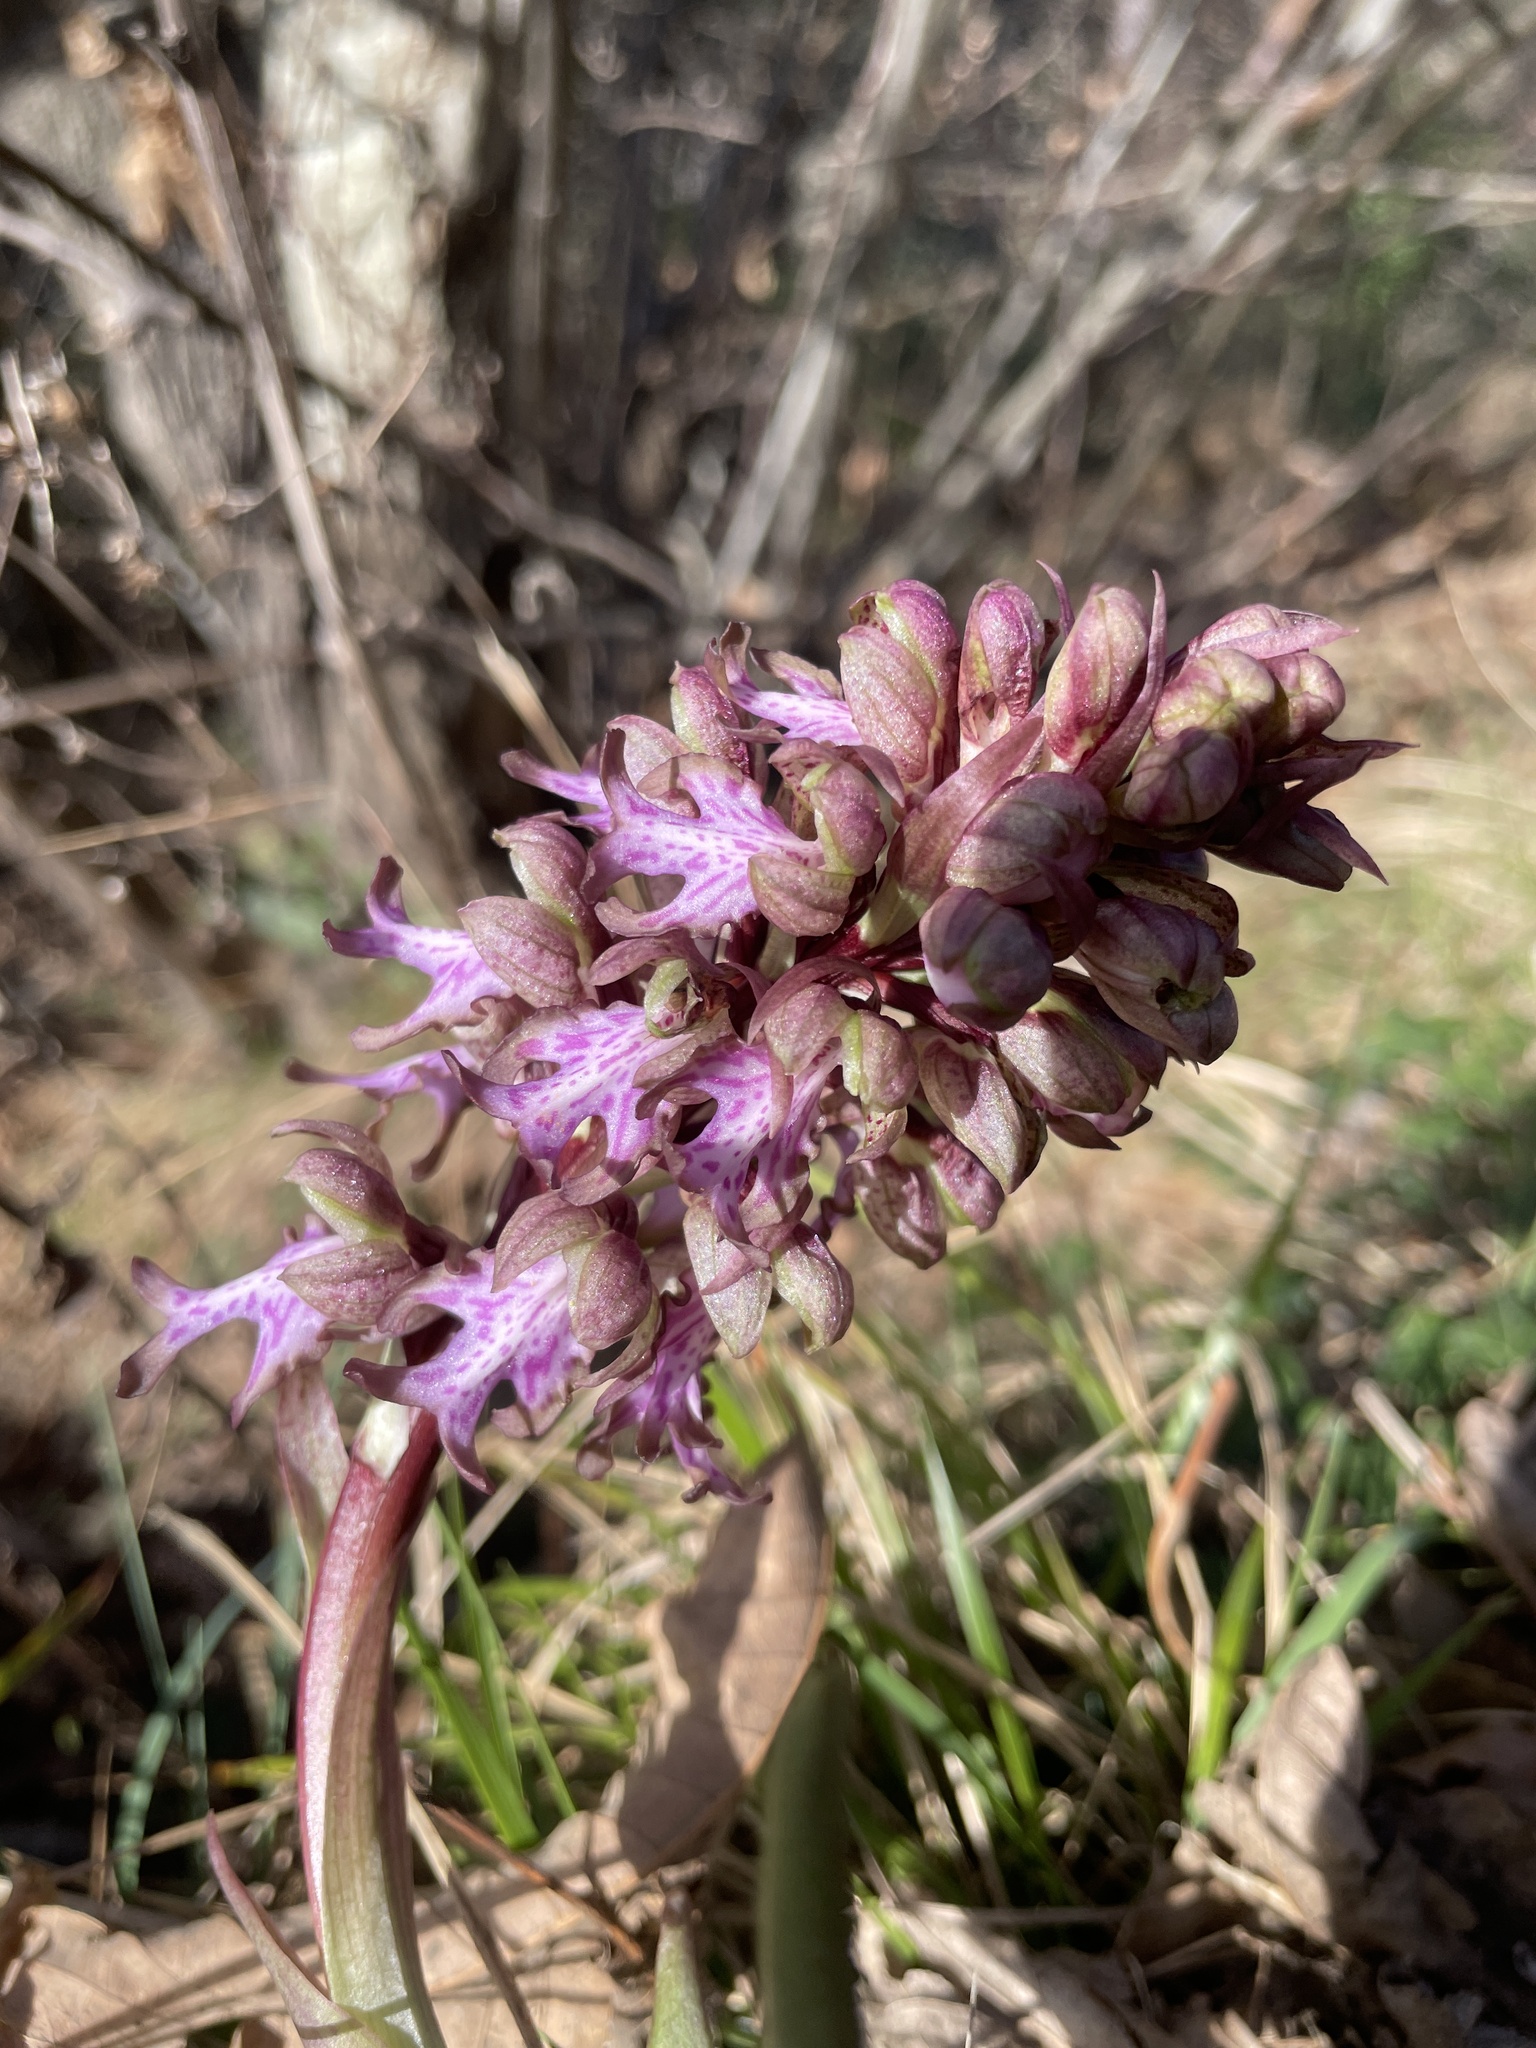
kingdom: Plantae
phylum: Tracheophyta
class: Liliopsida
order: Asparagales
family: Orchidaceae
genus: Himantoglossum
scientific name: Himantoglossum robertianum
